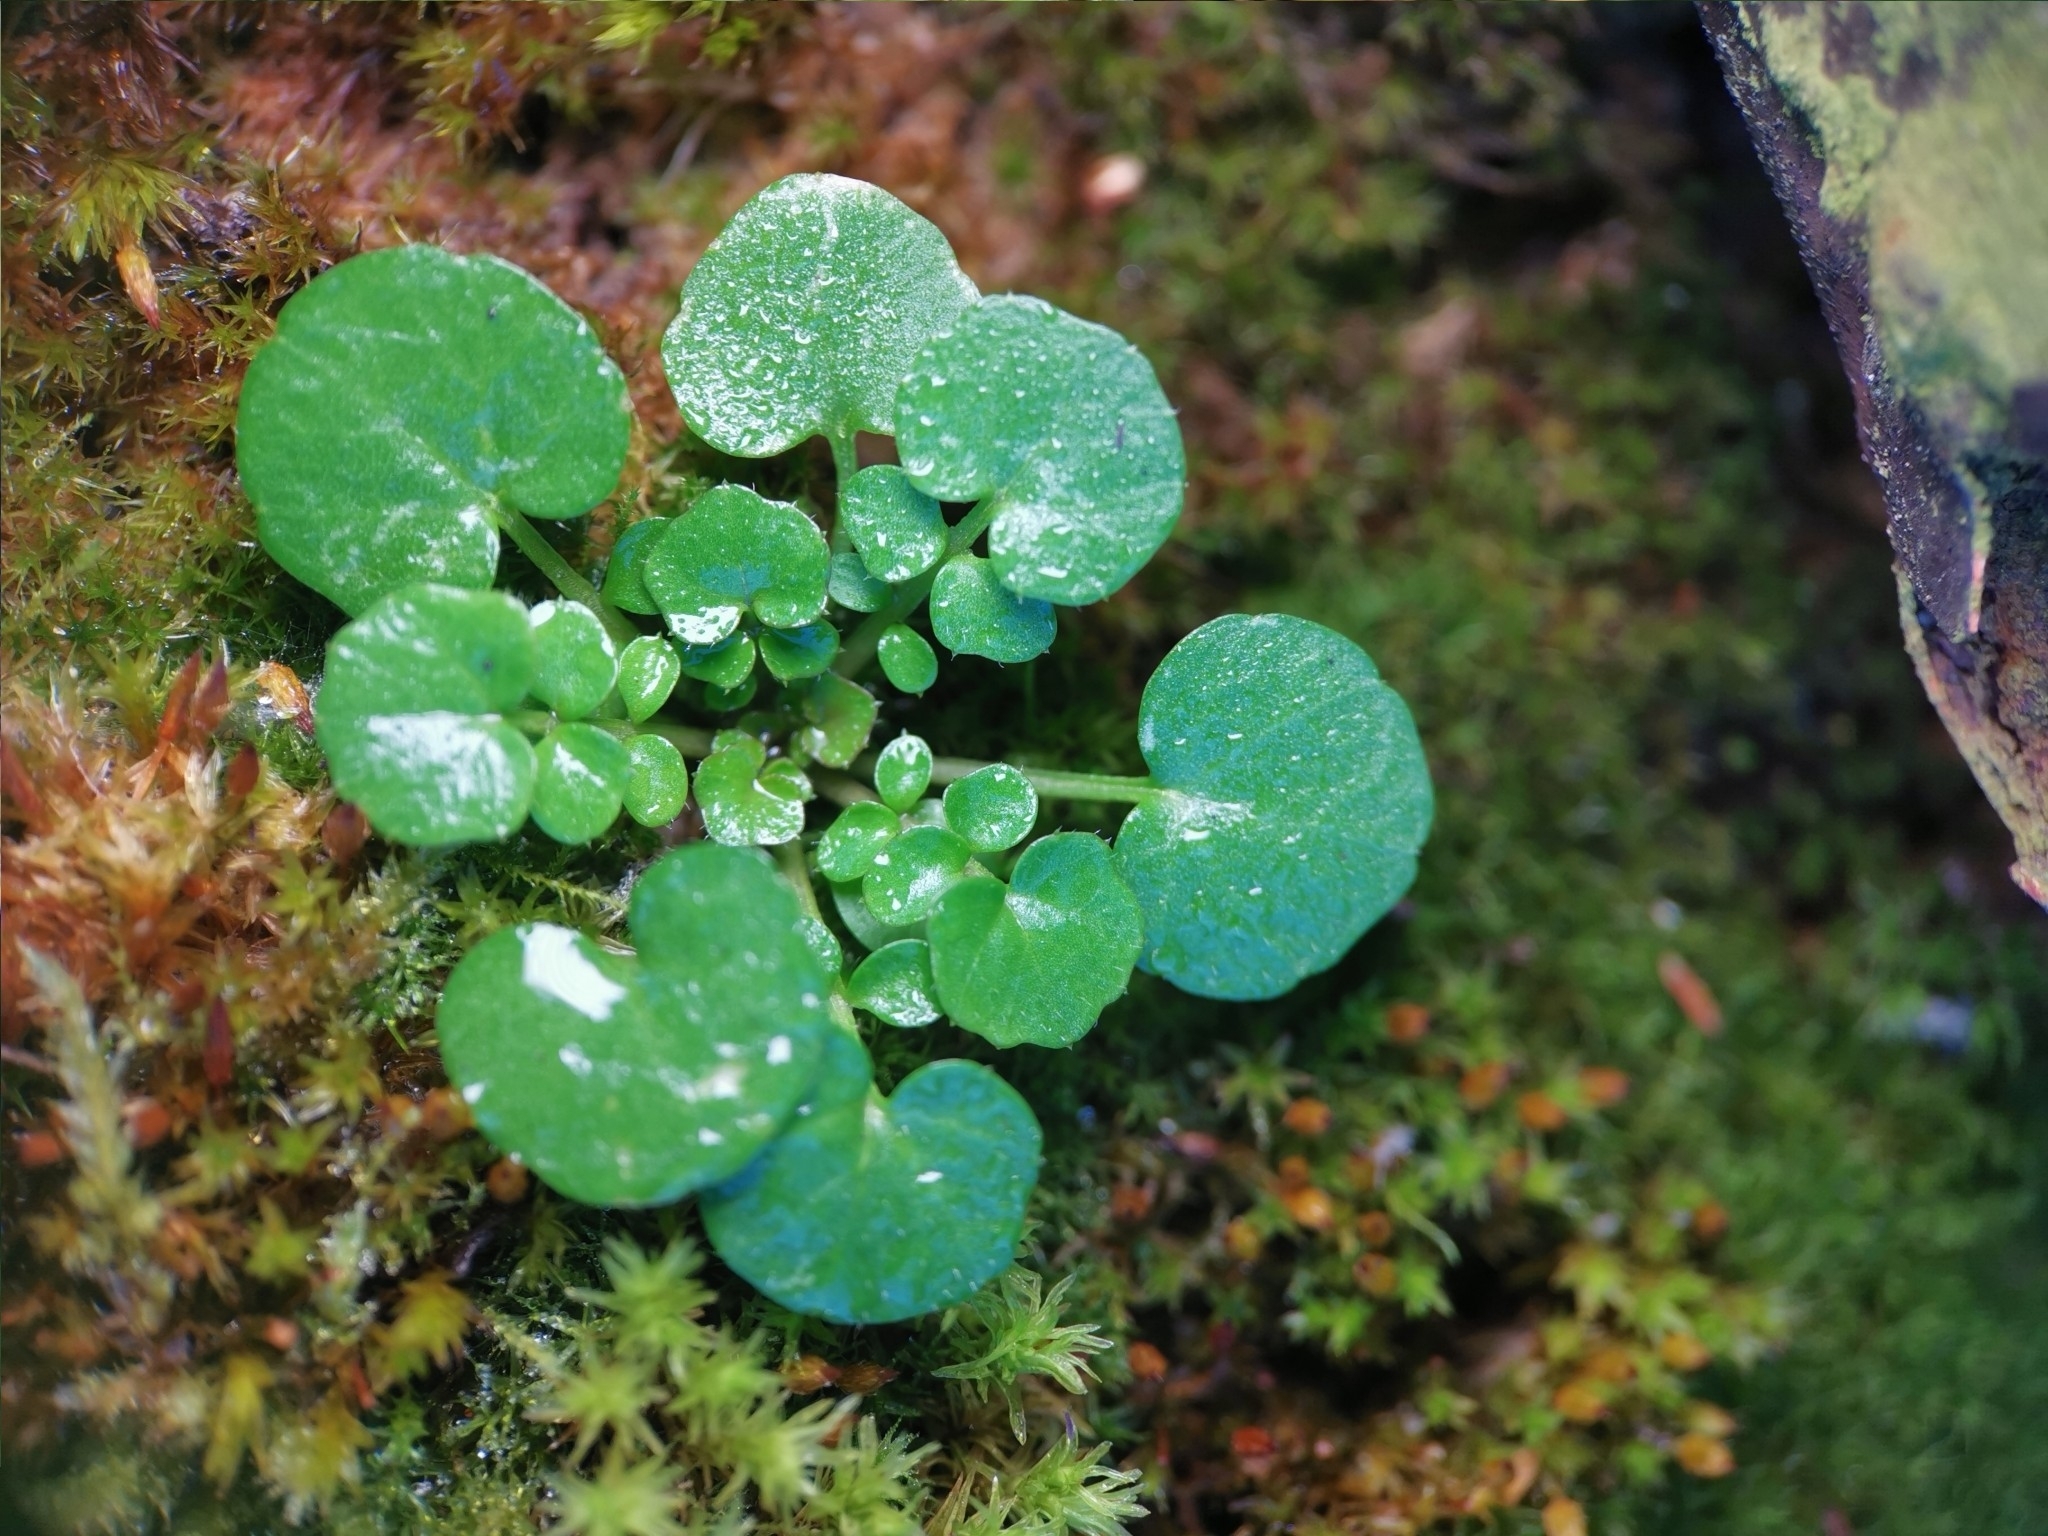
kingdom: Plantae
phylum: Tracheophyta
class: Magnoliopsida
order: Brassicales
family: Brassicaceae
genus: Cardamine
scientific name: Cardamine hirsuta
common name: Hairy bittercress
